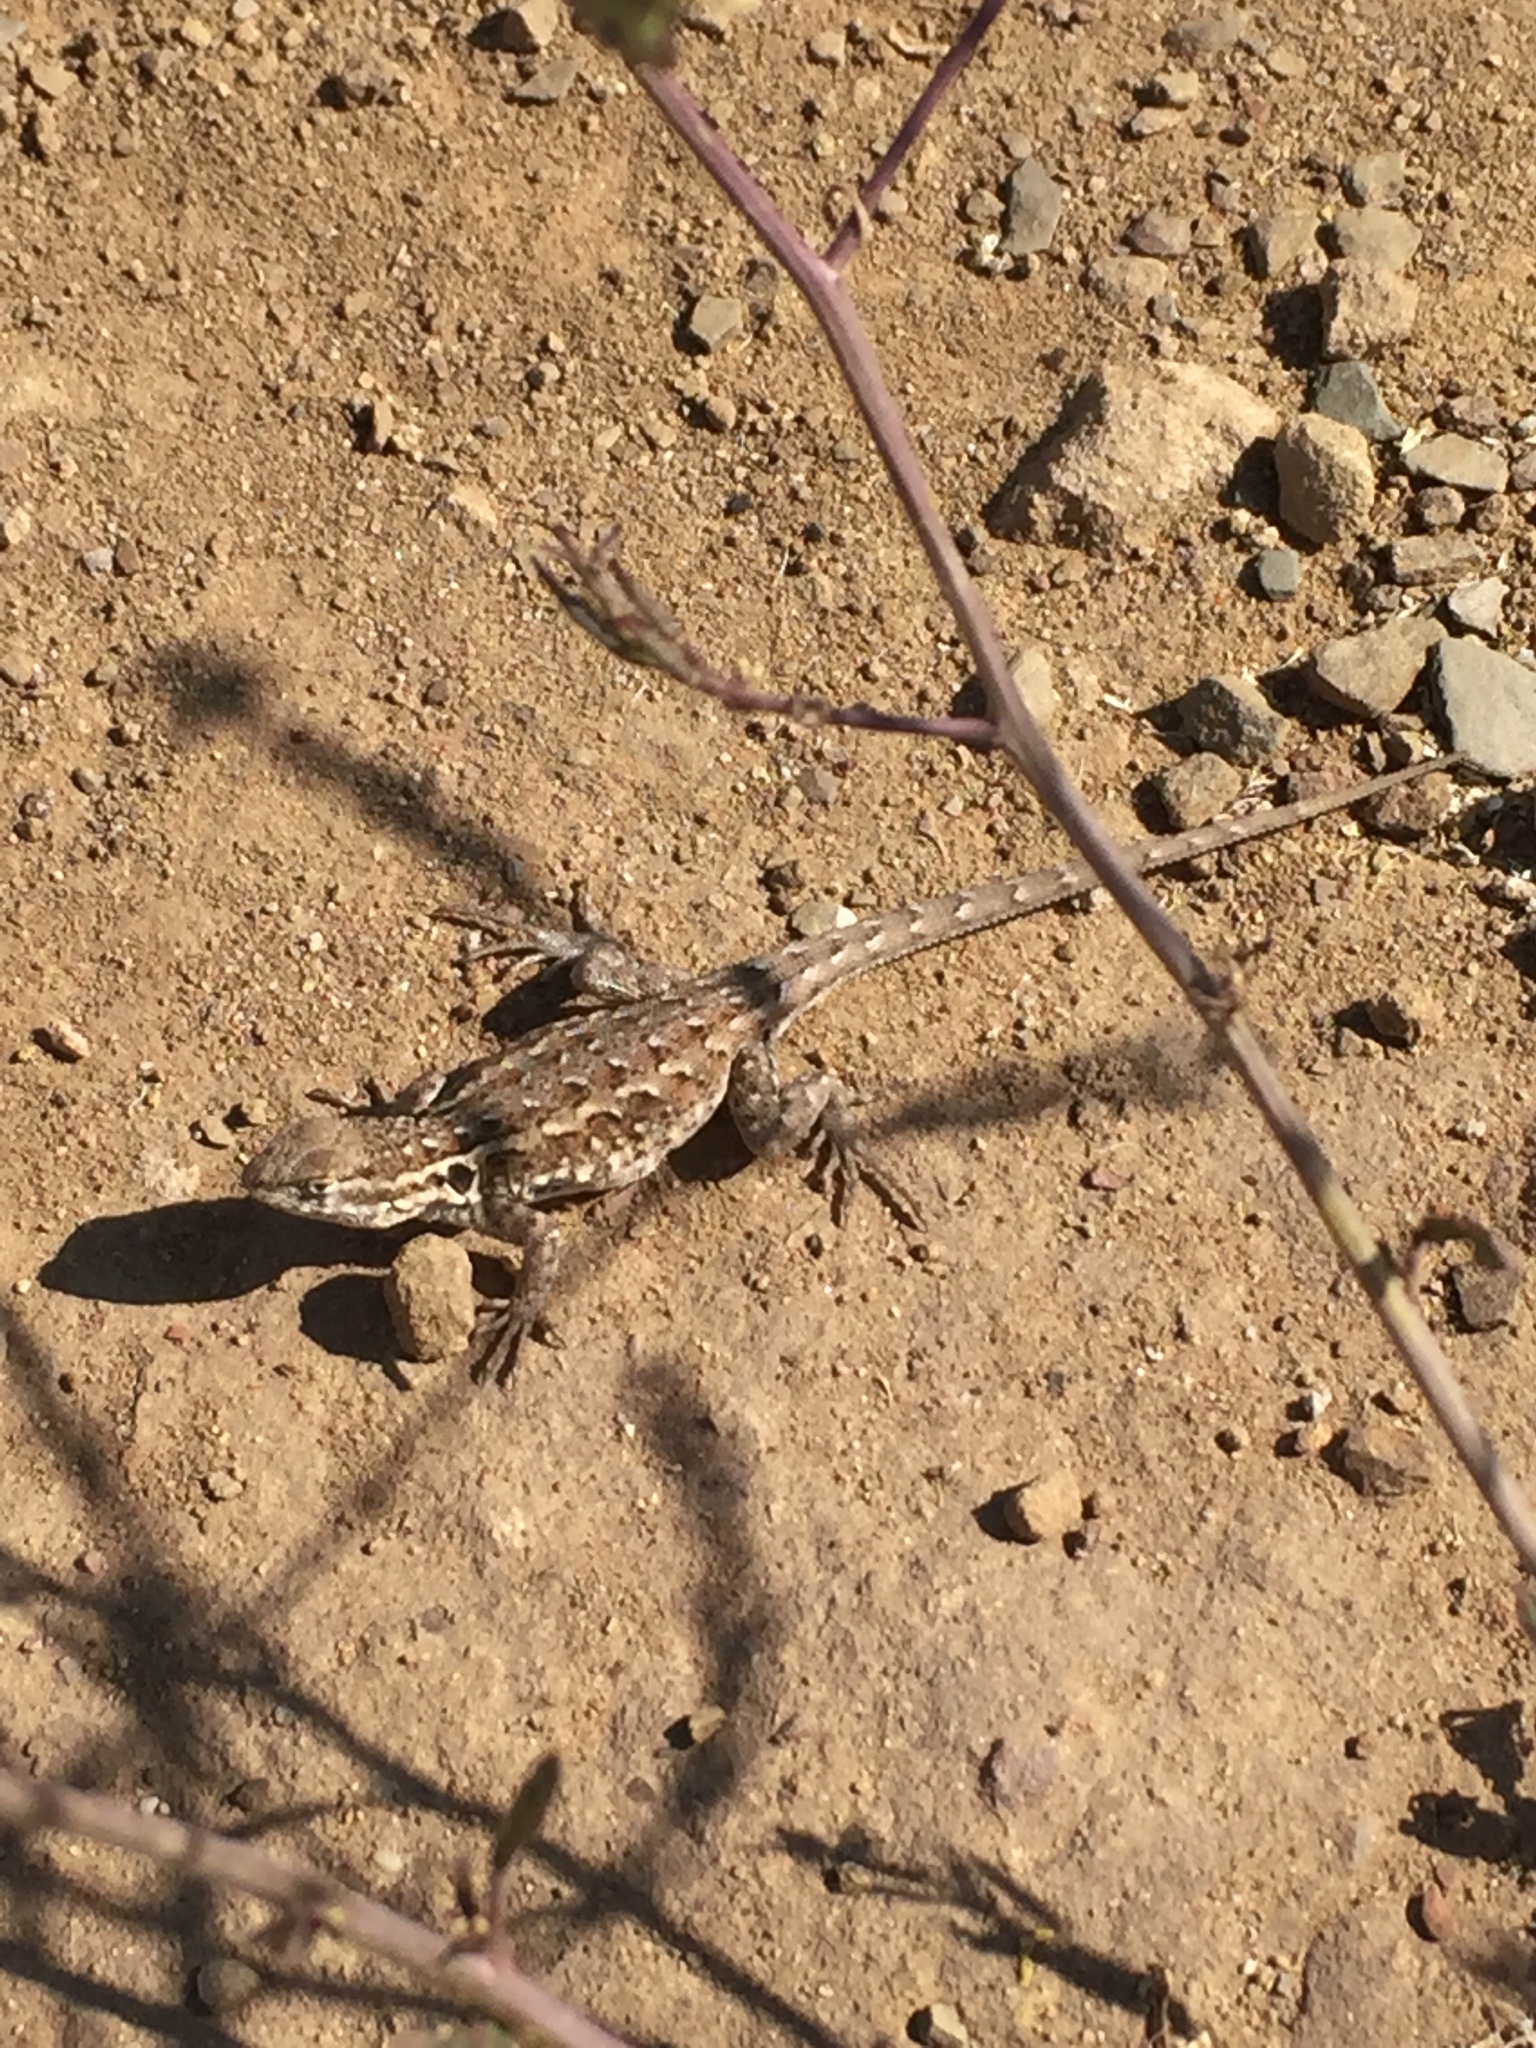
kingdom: Animalia
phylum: Chordata
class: Squamata
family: Phrynosomatidae
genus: Uta
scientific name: Uta stansburiana
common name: Side-blotched lizard
